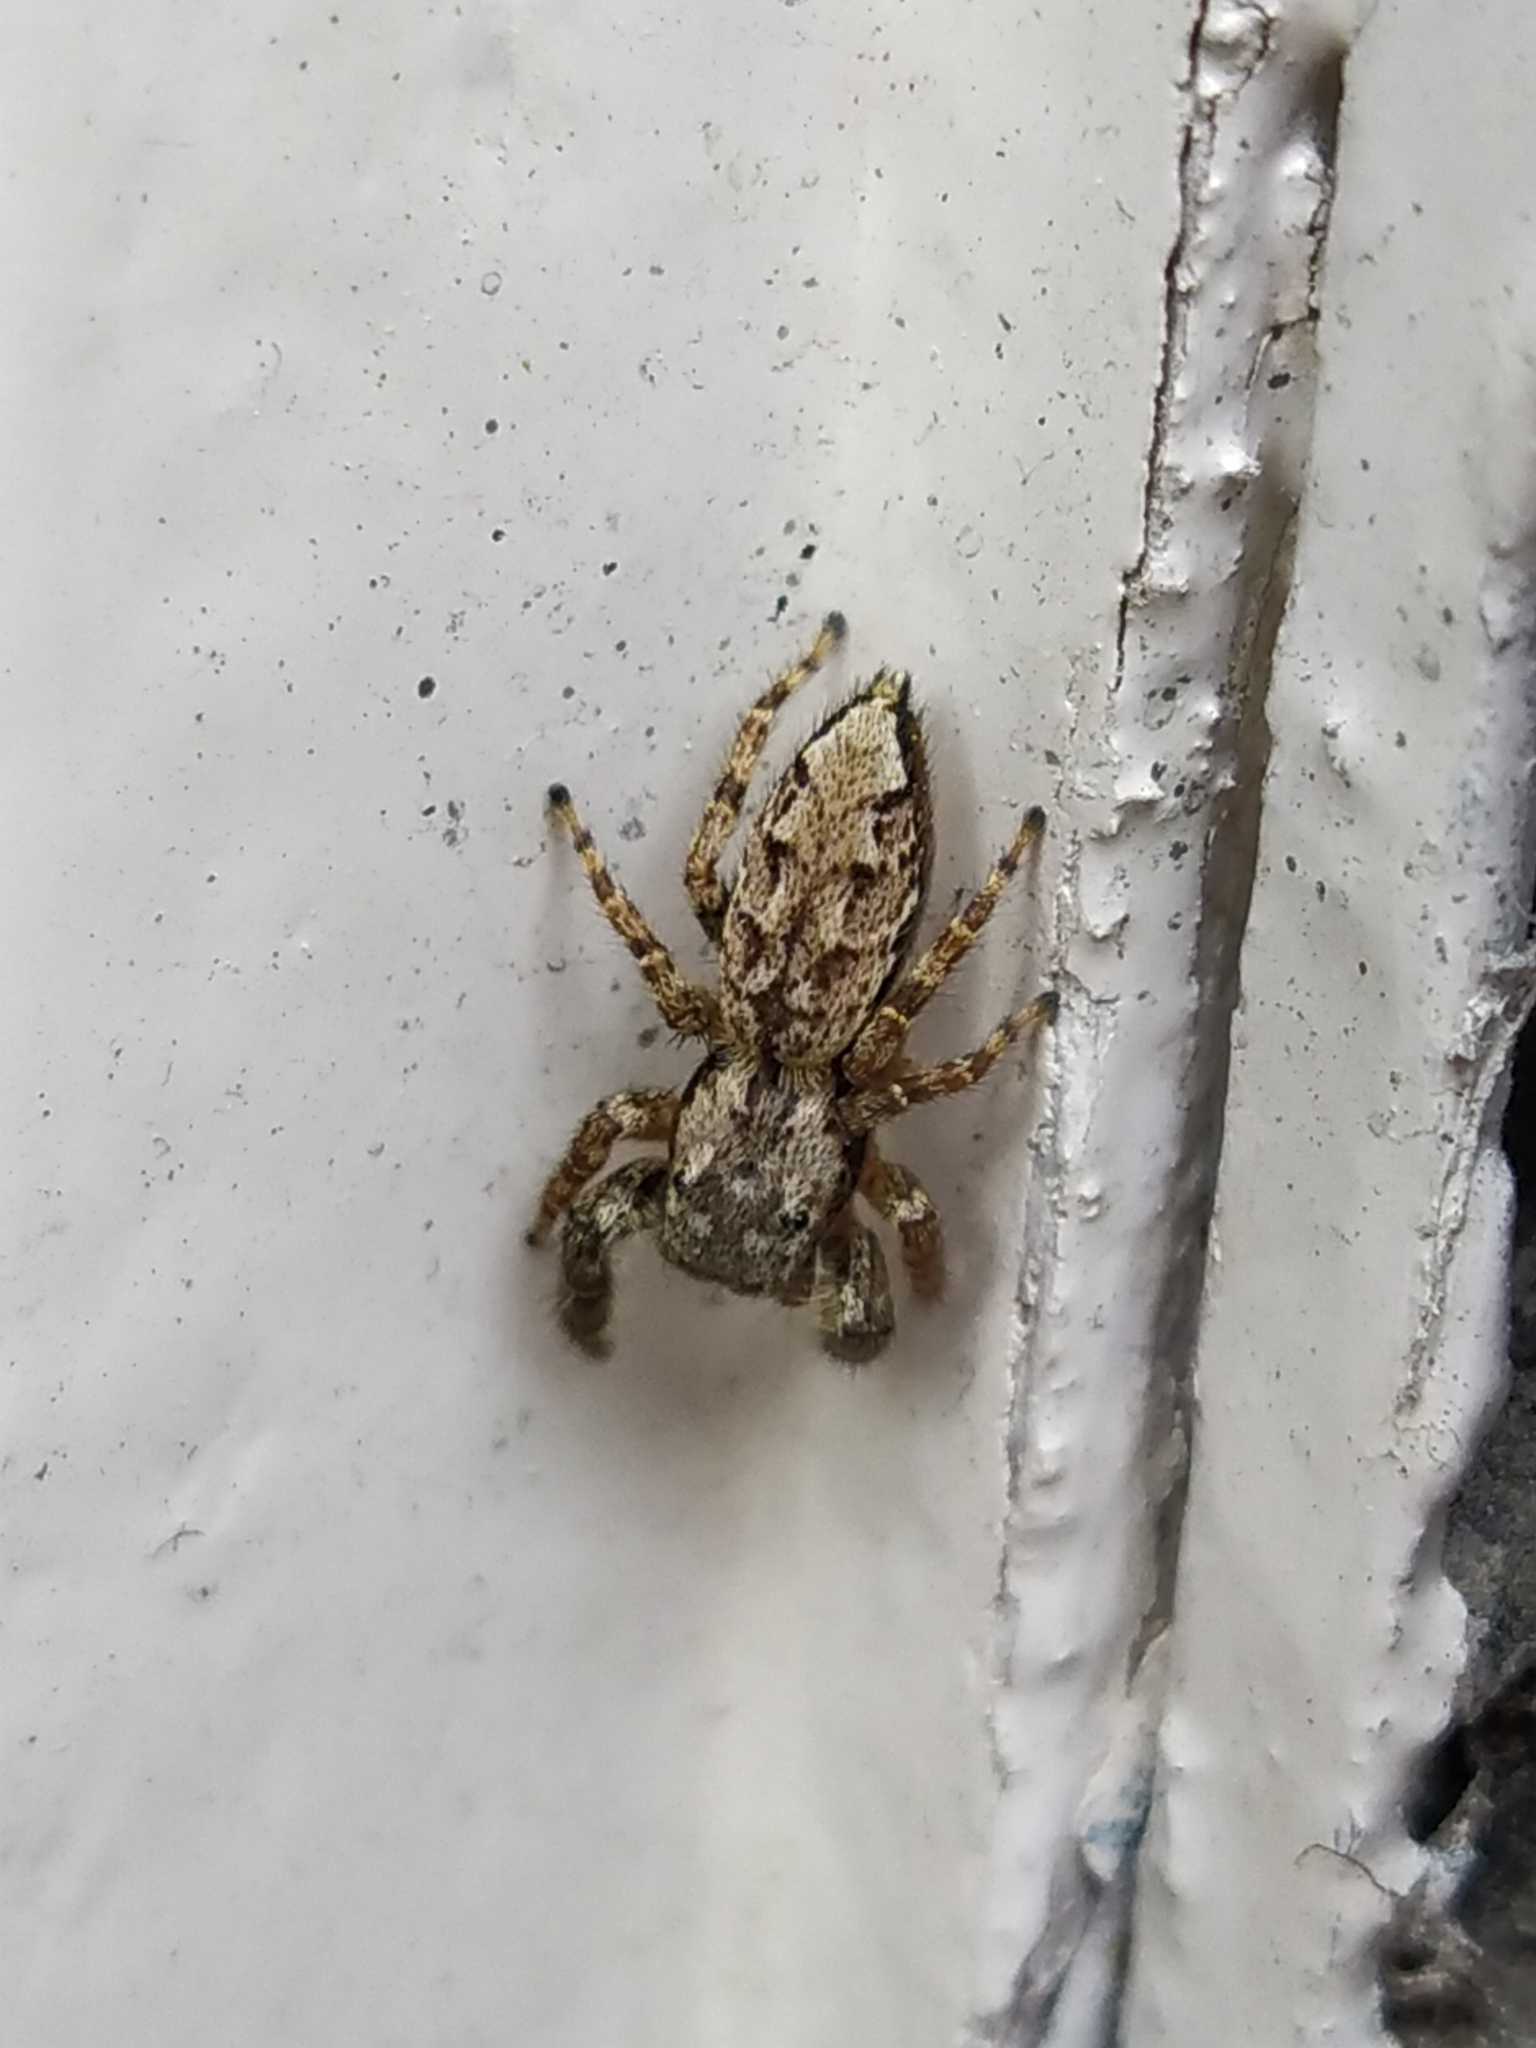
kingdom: Animalia
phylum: Arthropoda
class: Arachnida
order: Araneae
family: Salticidae
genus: Marpissa
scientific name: Marpissa muscosa
